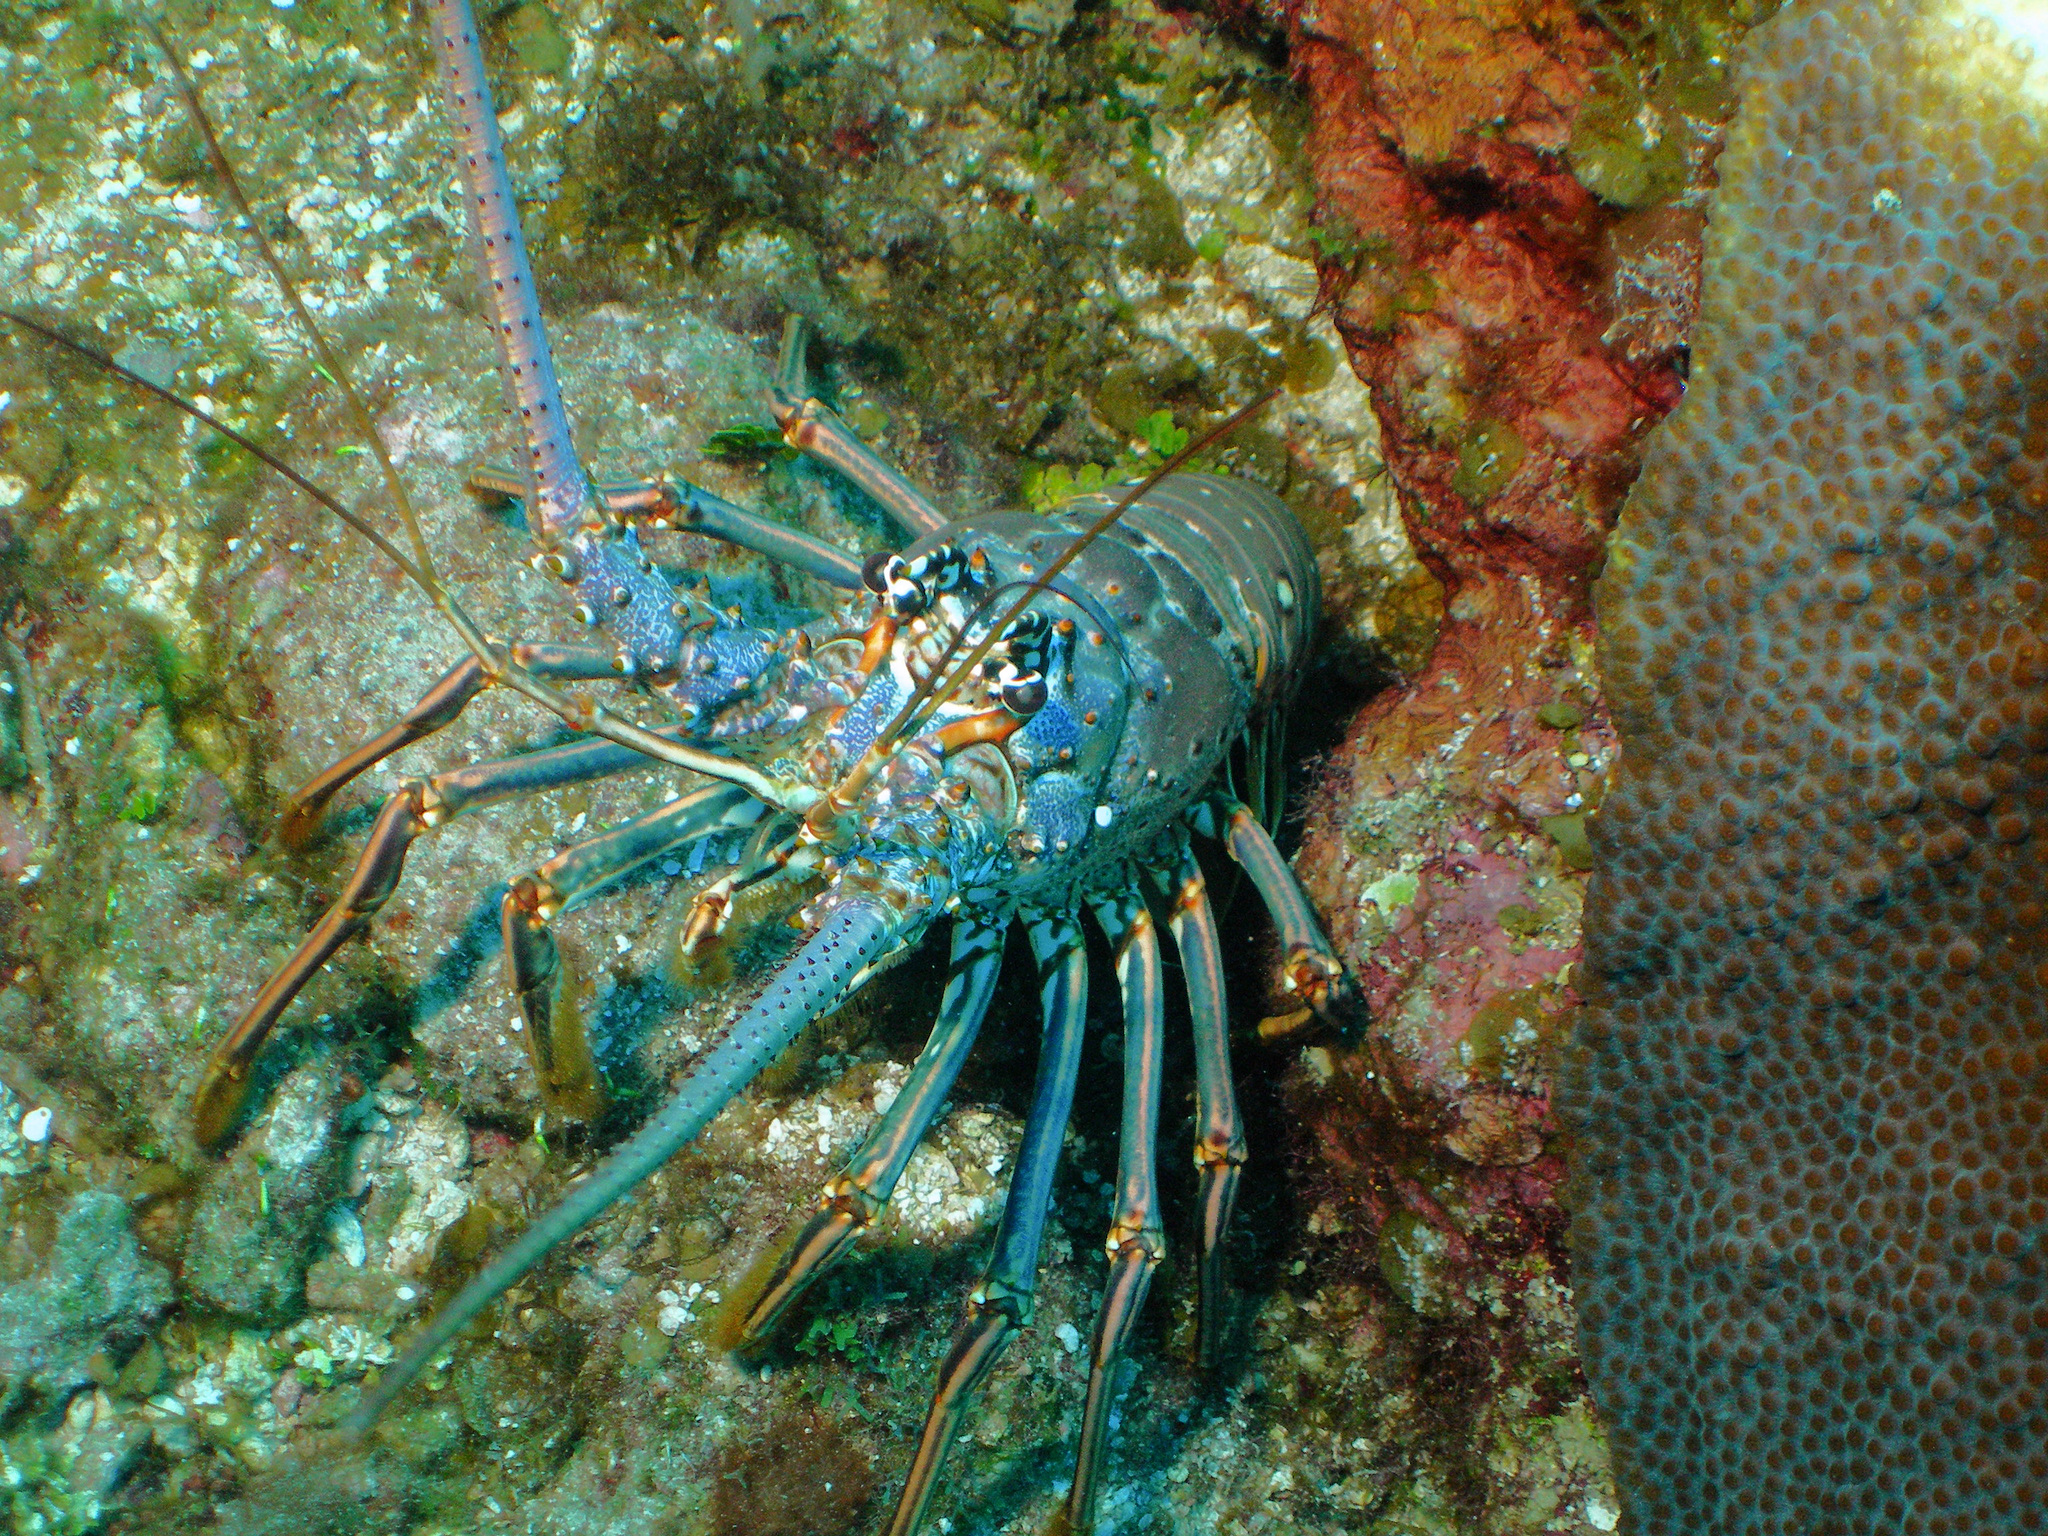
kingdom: Animalia
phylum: Arthropoda
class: Malacostraca
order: Decapoda
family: Palinuridae
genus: Panulirus
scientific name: Panulirus argus
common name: Caribbean spiny lobster
